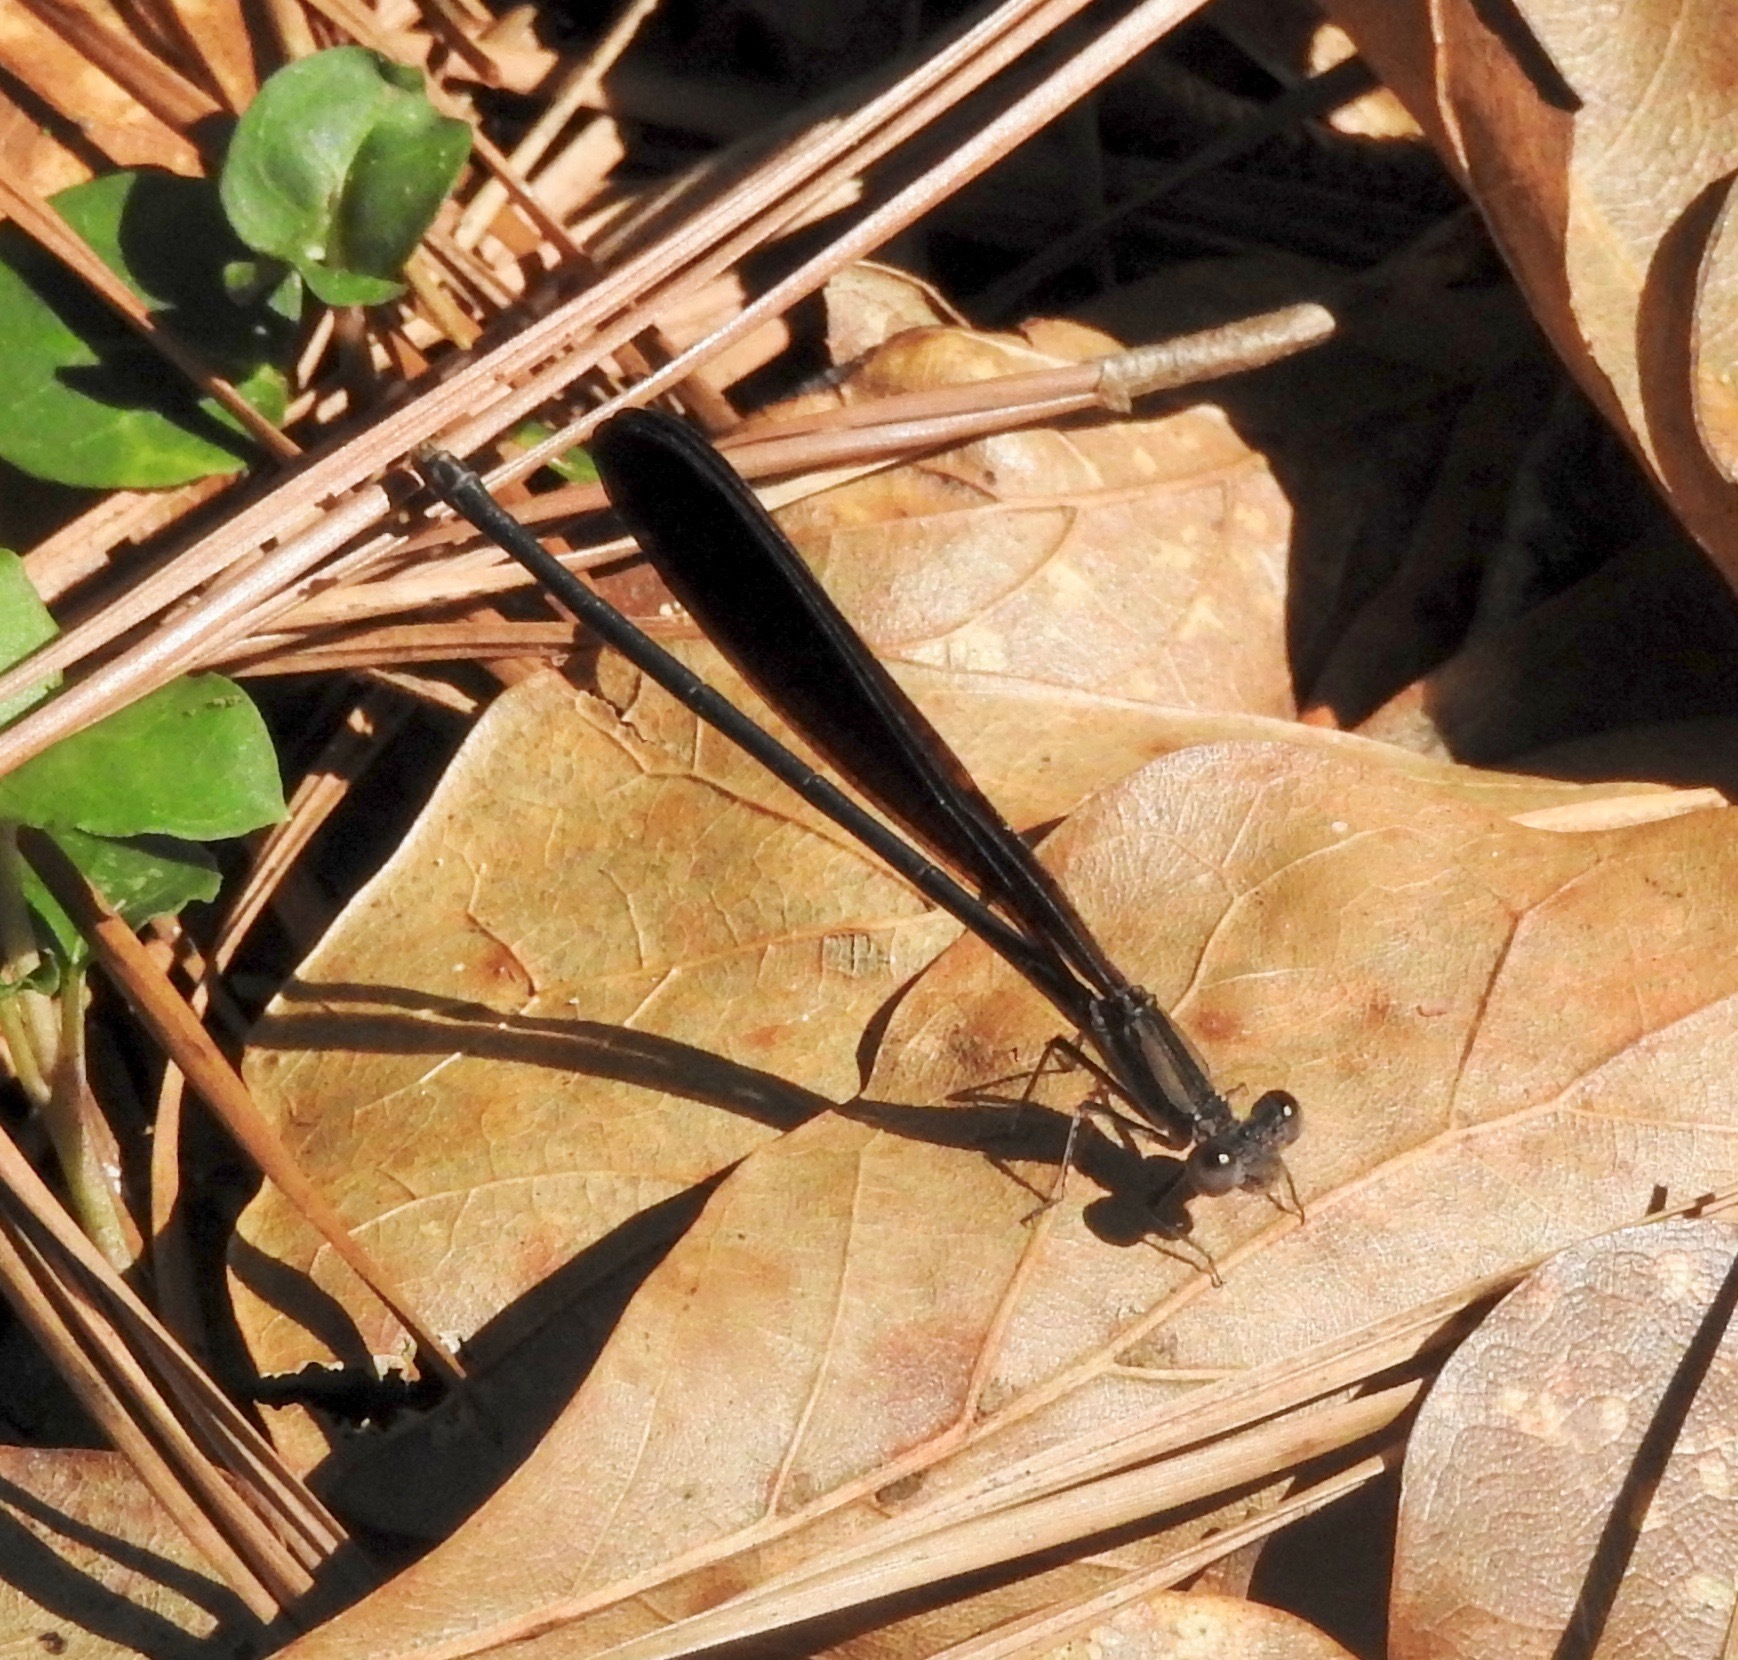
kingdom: Animalia
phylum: Arthropoda
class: Insecta
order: Odonata
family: Coenagrionidae
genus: Argia
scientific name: Argia fumipennis
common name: Variable dancer
